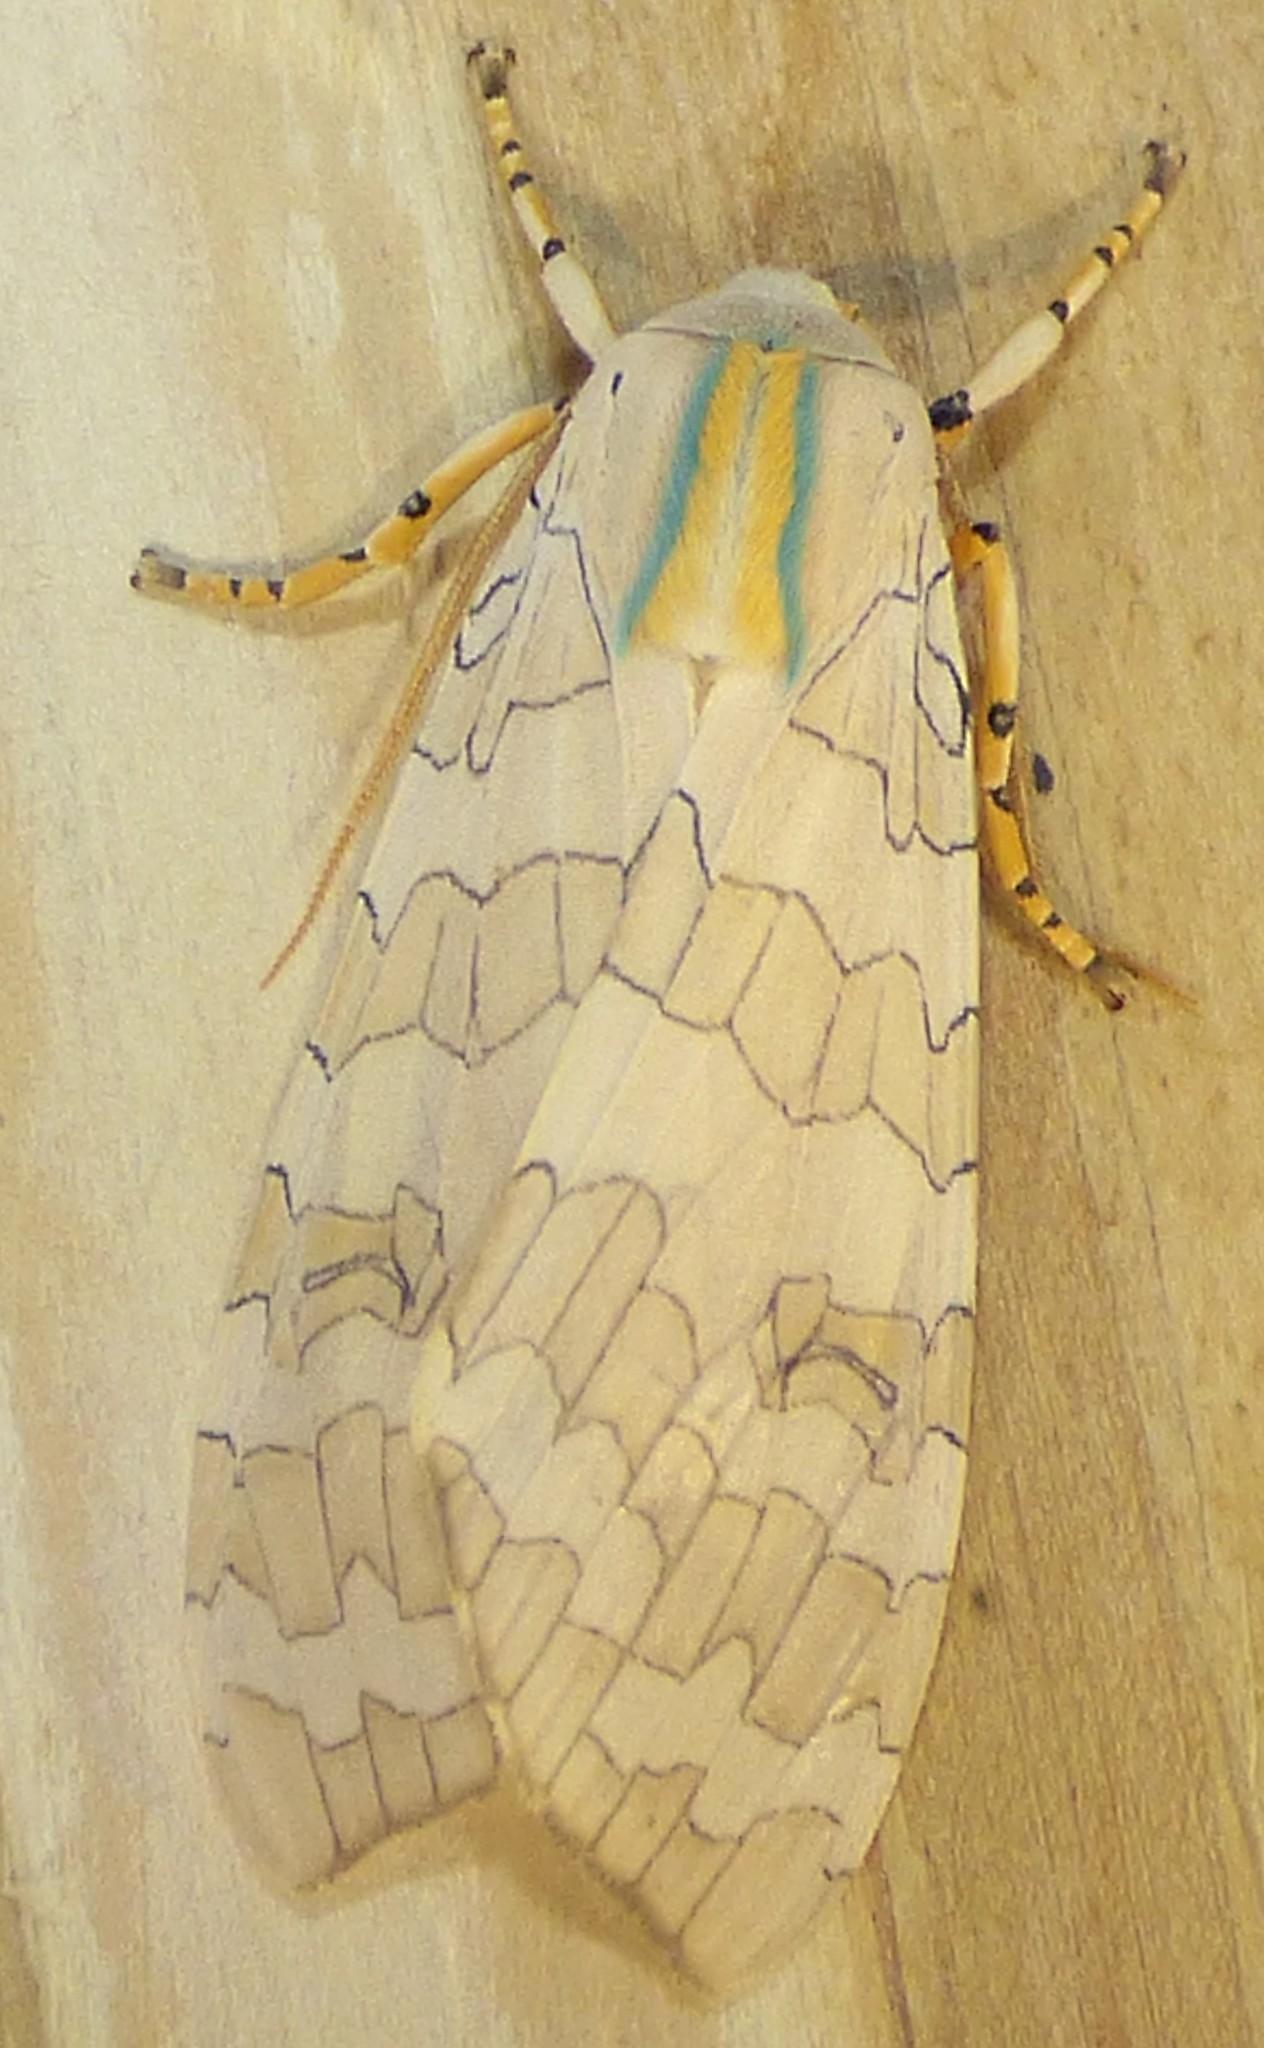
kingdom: Animalia
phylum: Arthropoda
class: Insecta
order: Lepidoptera
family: Erebidae
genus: Halysidota
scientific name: Halysidota
